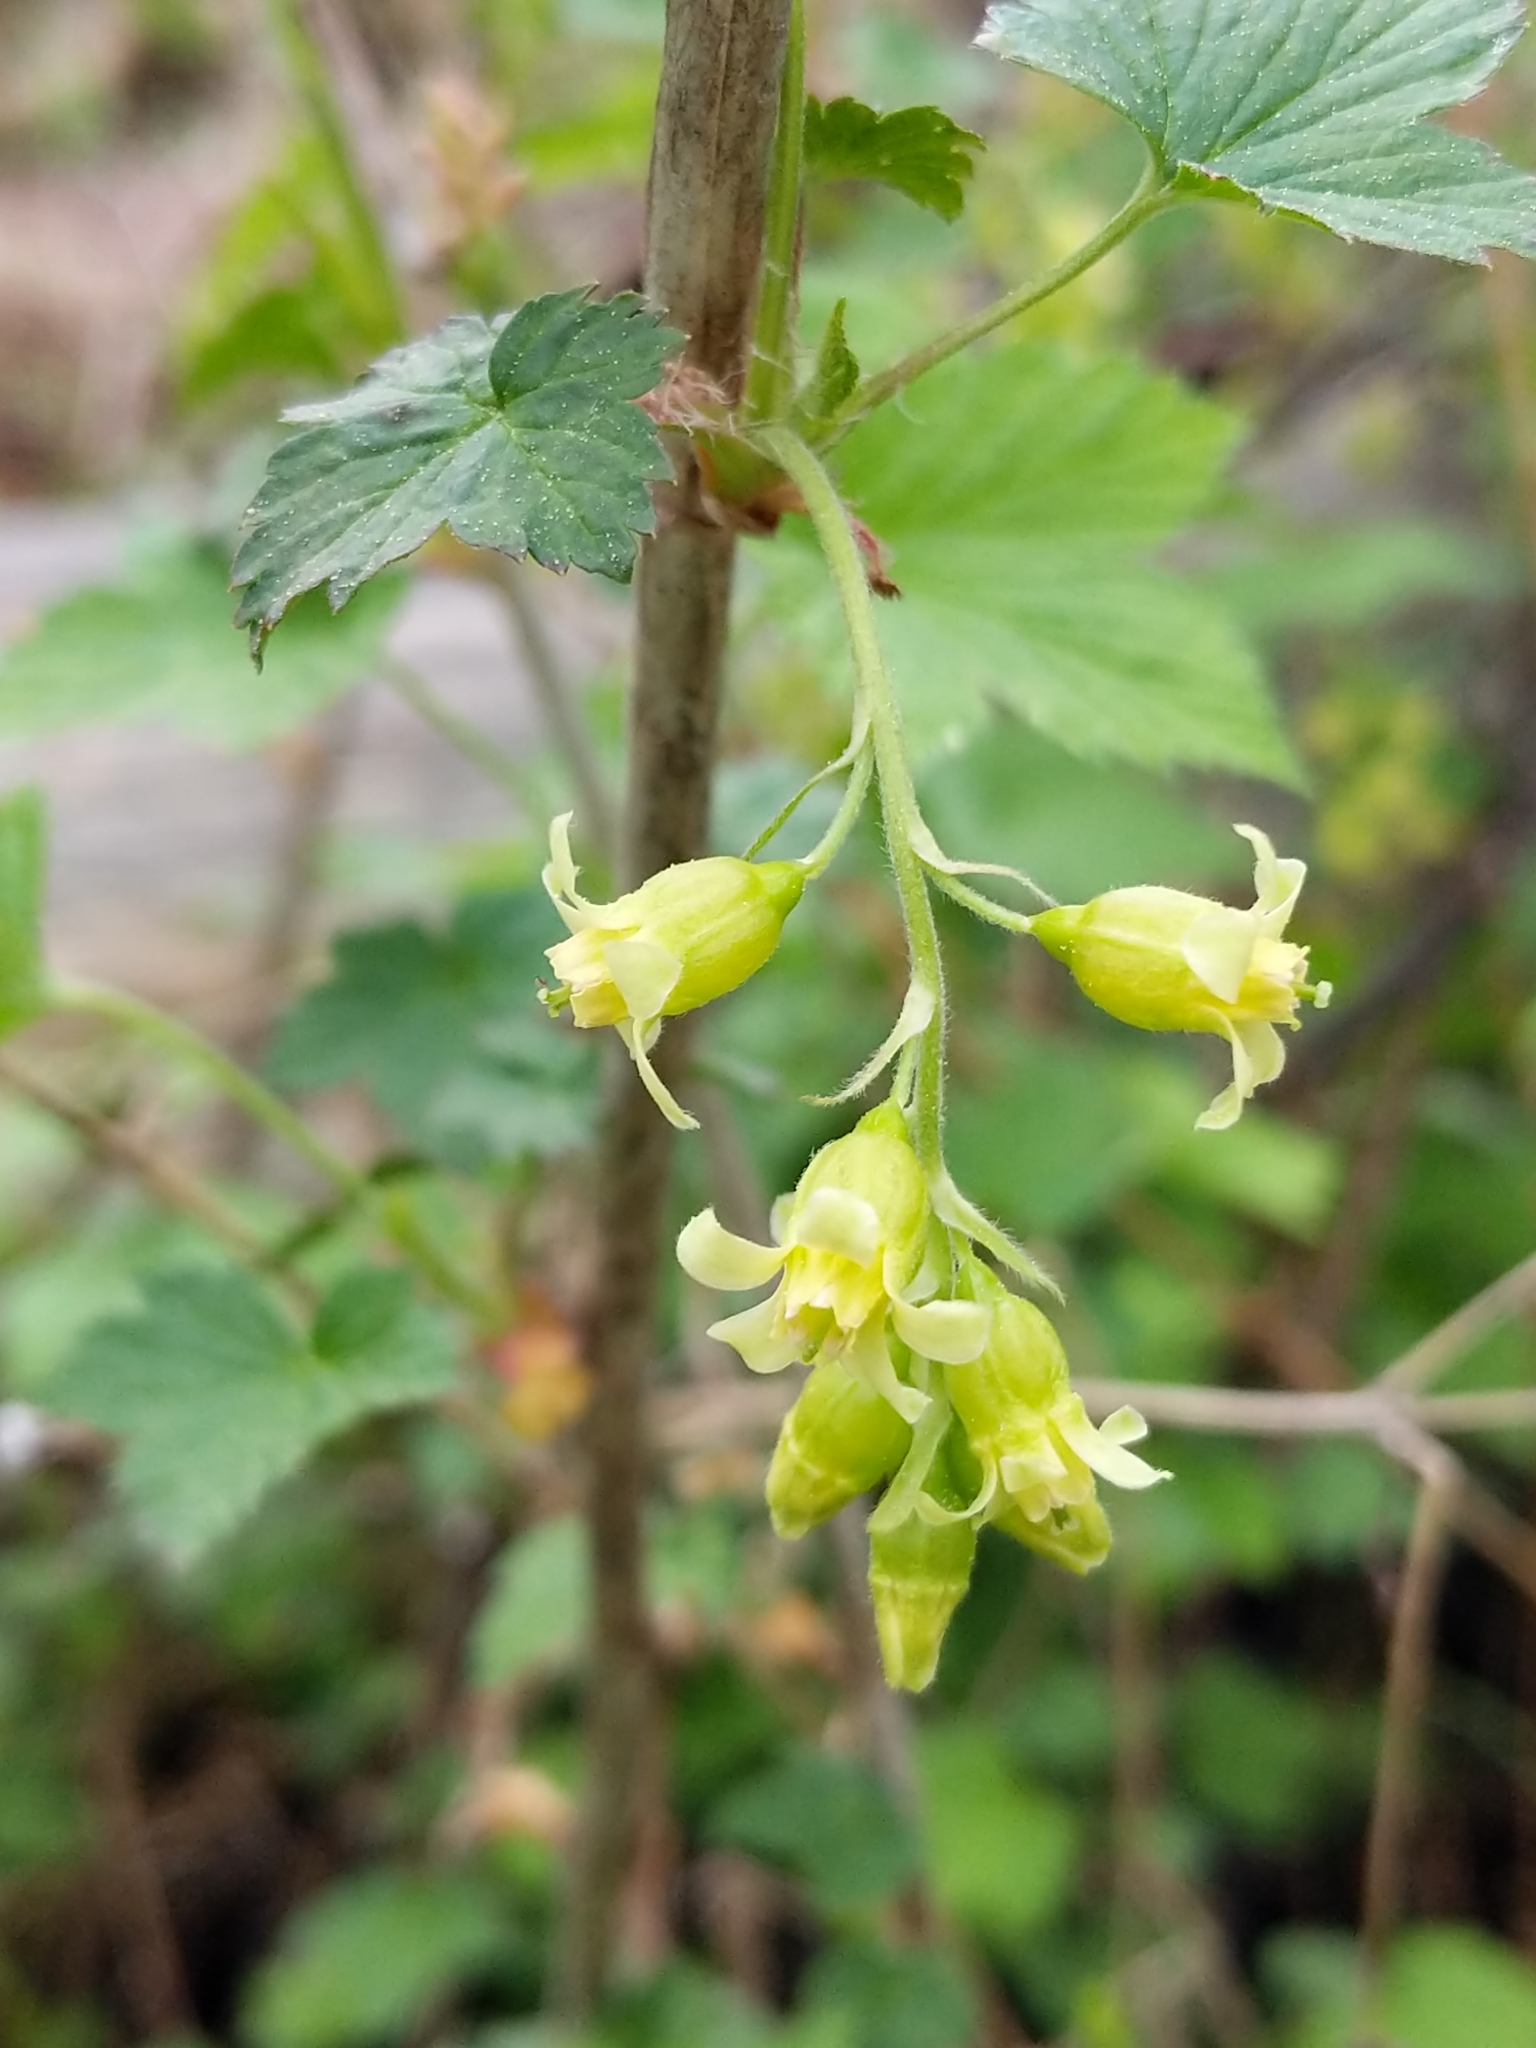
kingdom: Plantae
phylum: Tracheophyta
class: Magnoliopsida
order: Saxifragales
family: Grossulariaceae
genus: Ribes
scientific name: Ribes americanum
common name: American black currant
